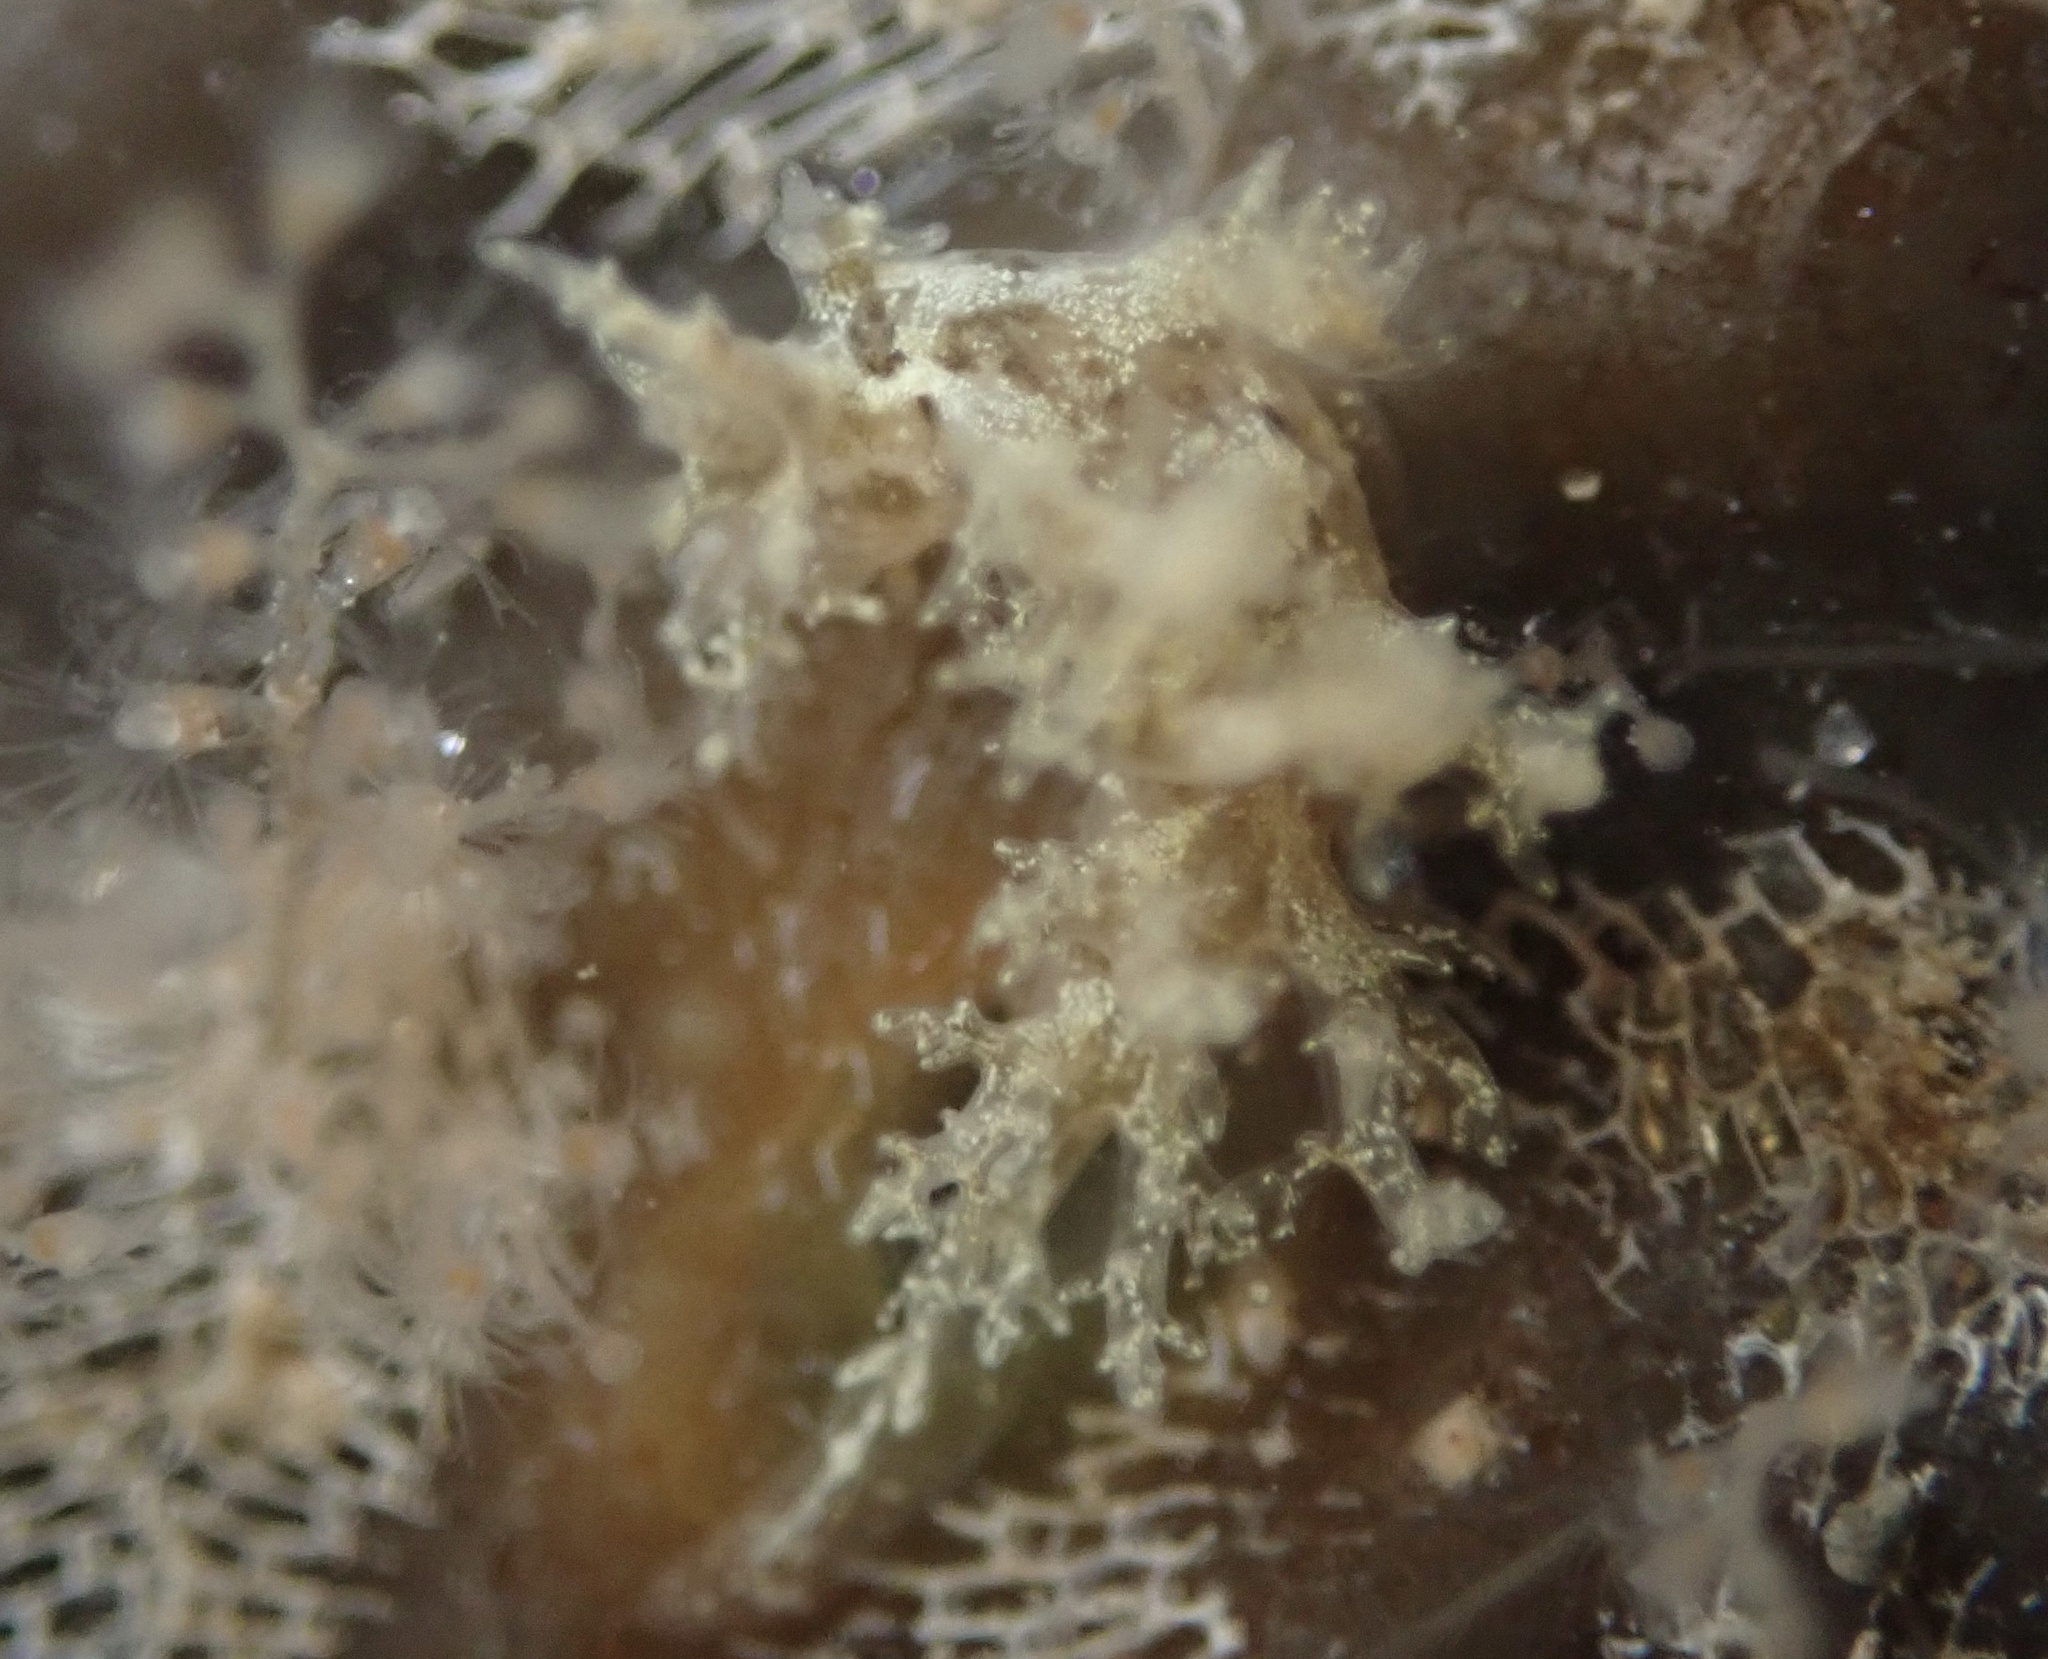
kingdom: Animalia
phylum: Mollusca
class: Gastropoda
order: Nudibranchia
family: Dendronotidae
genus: Dendronotus
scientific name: Dendronotus venustus
